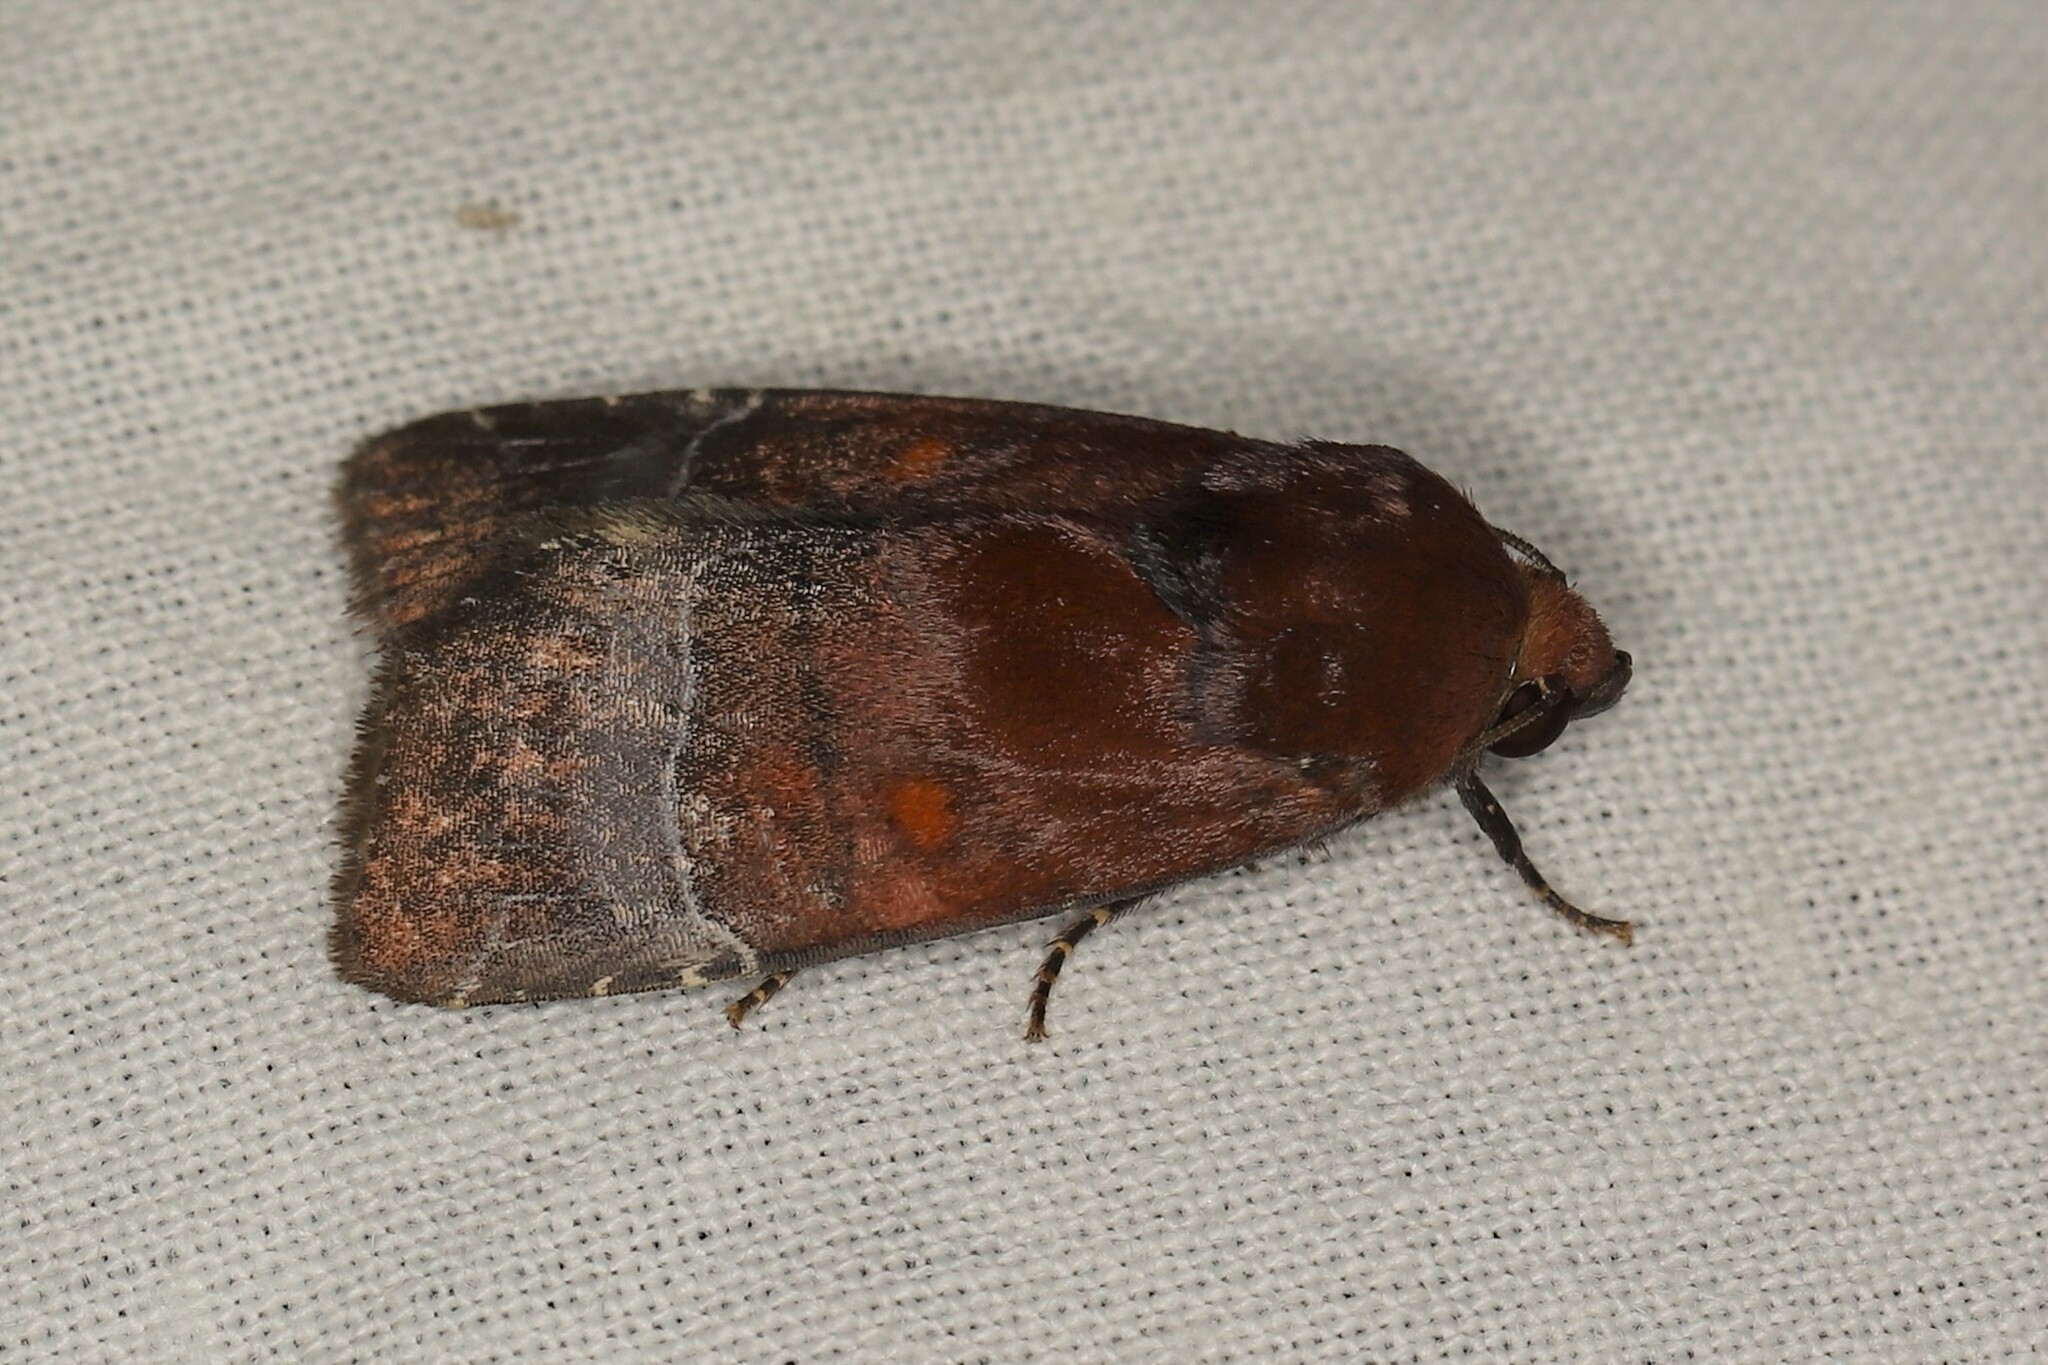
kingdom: Animalia
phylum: Arthropoda
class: Insecta
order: Lepidoptera
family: Noctuidae
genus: Hampsonodes
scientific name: Hampsonodes mastoides
